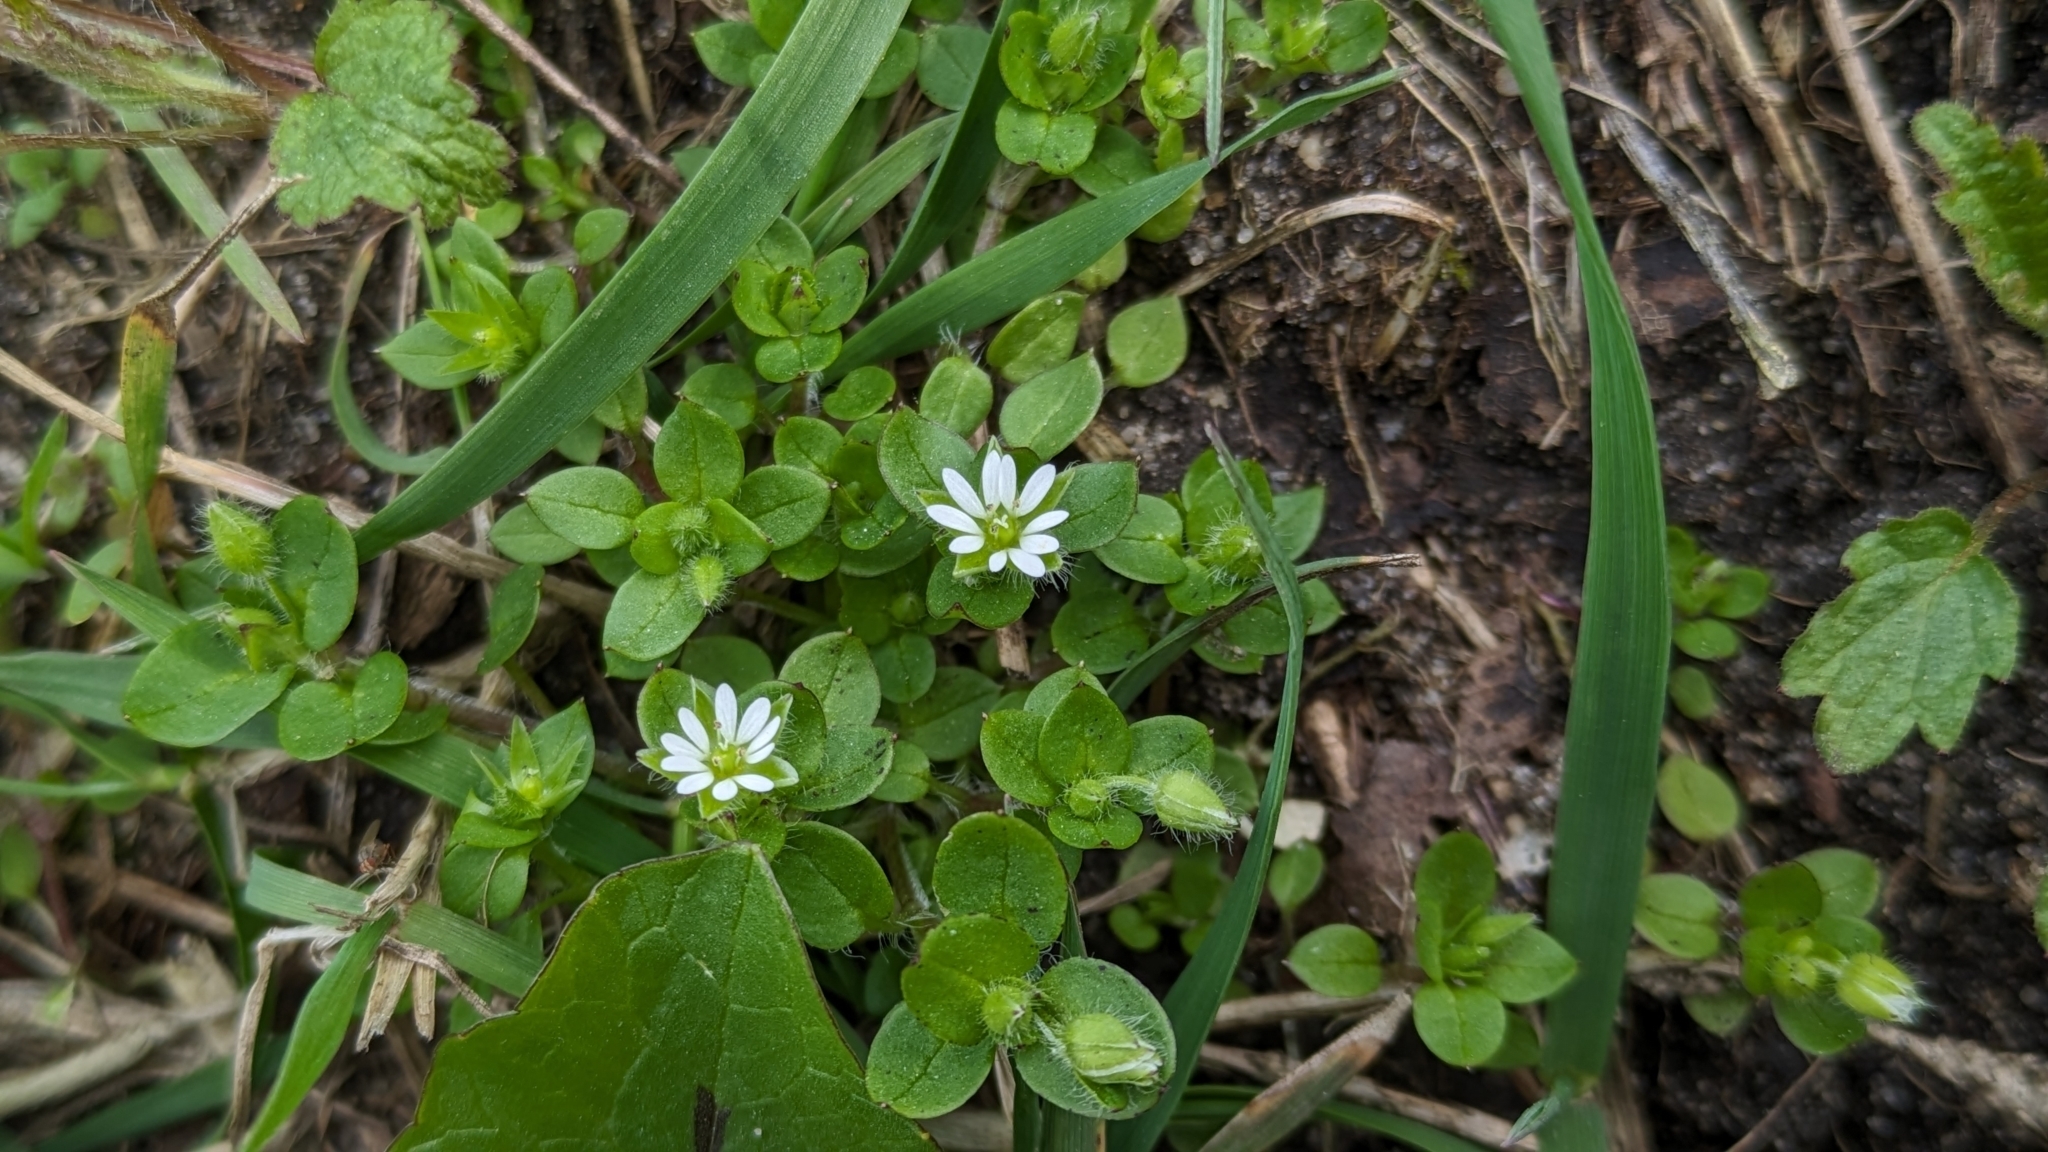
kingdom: Plantae
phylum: Tracheophyta
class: Magnoliopsida
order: Caryophyllales
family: Caryophyllaceae
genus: Stellaria
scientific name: Stellaria media
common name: Common chickweed
